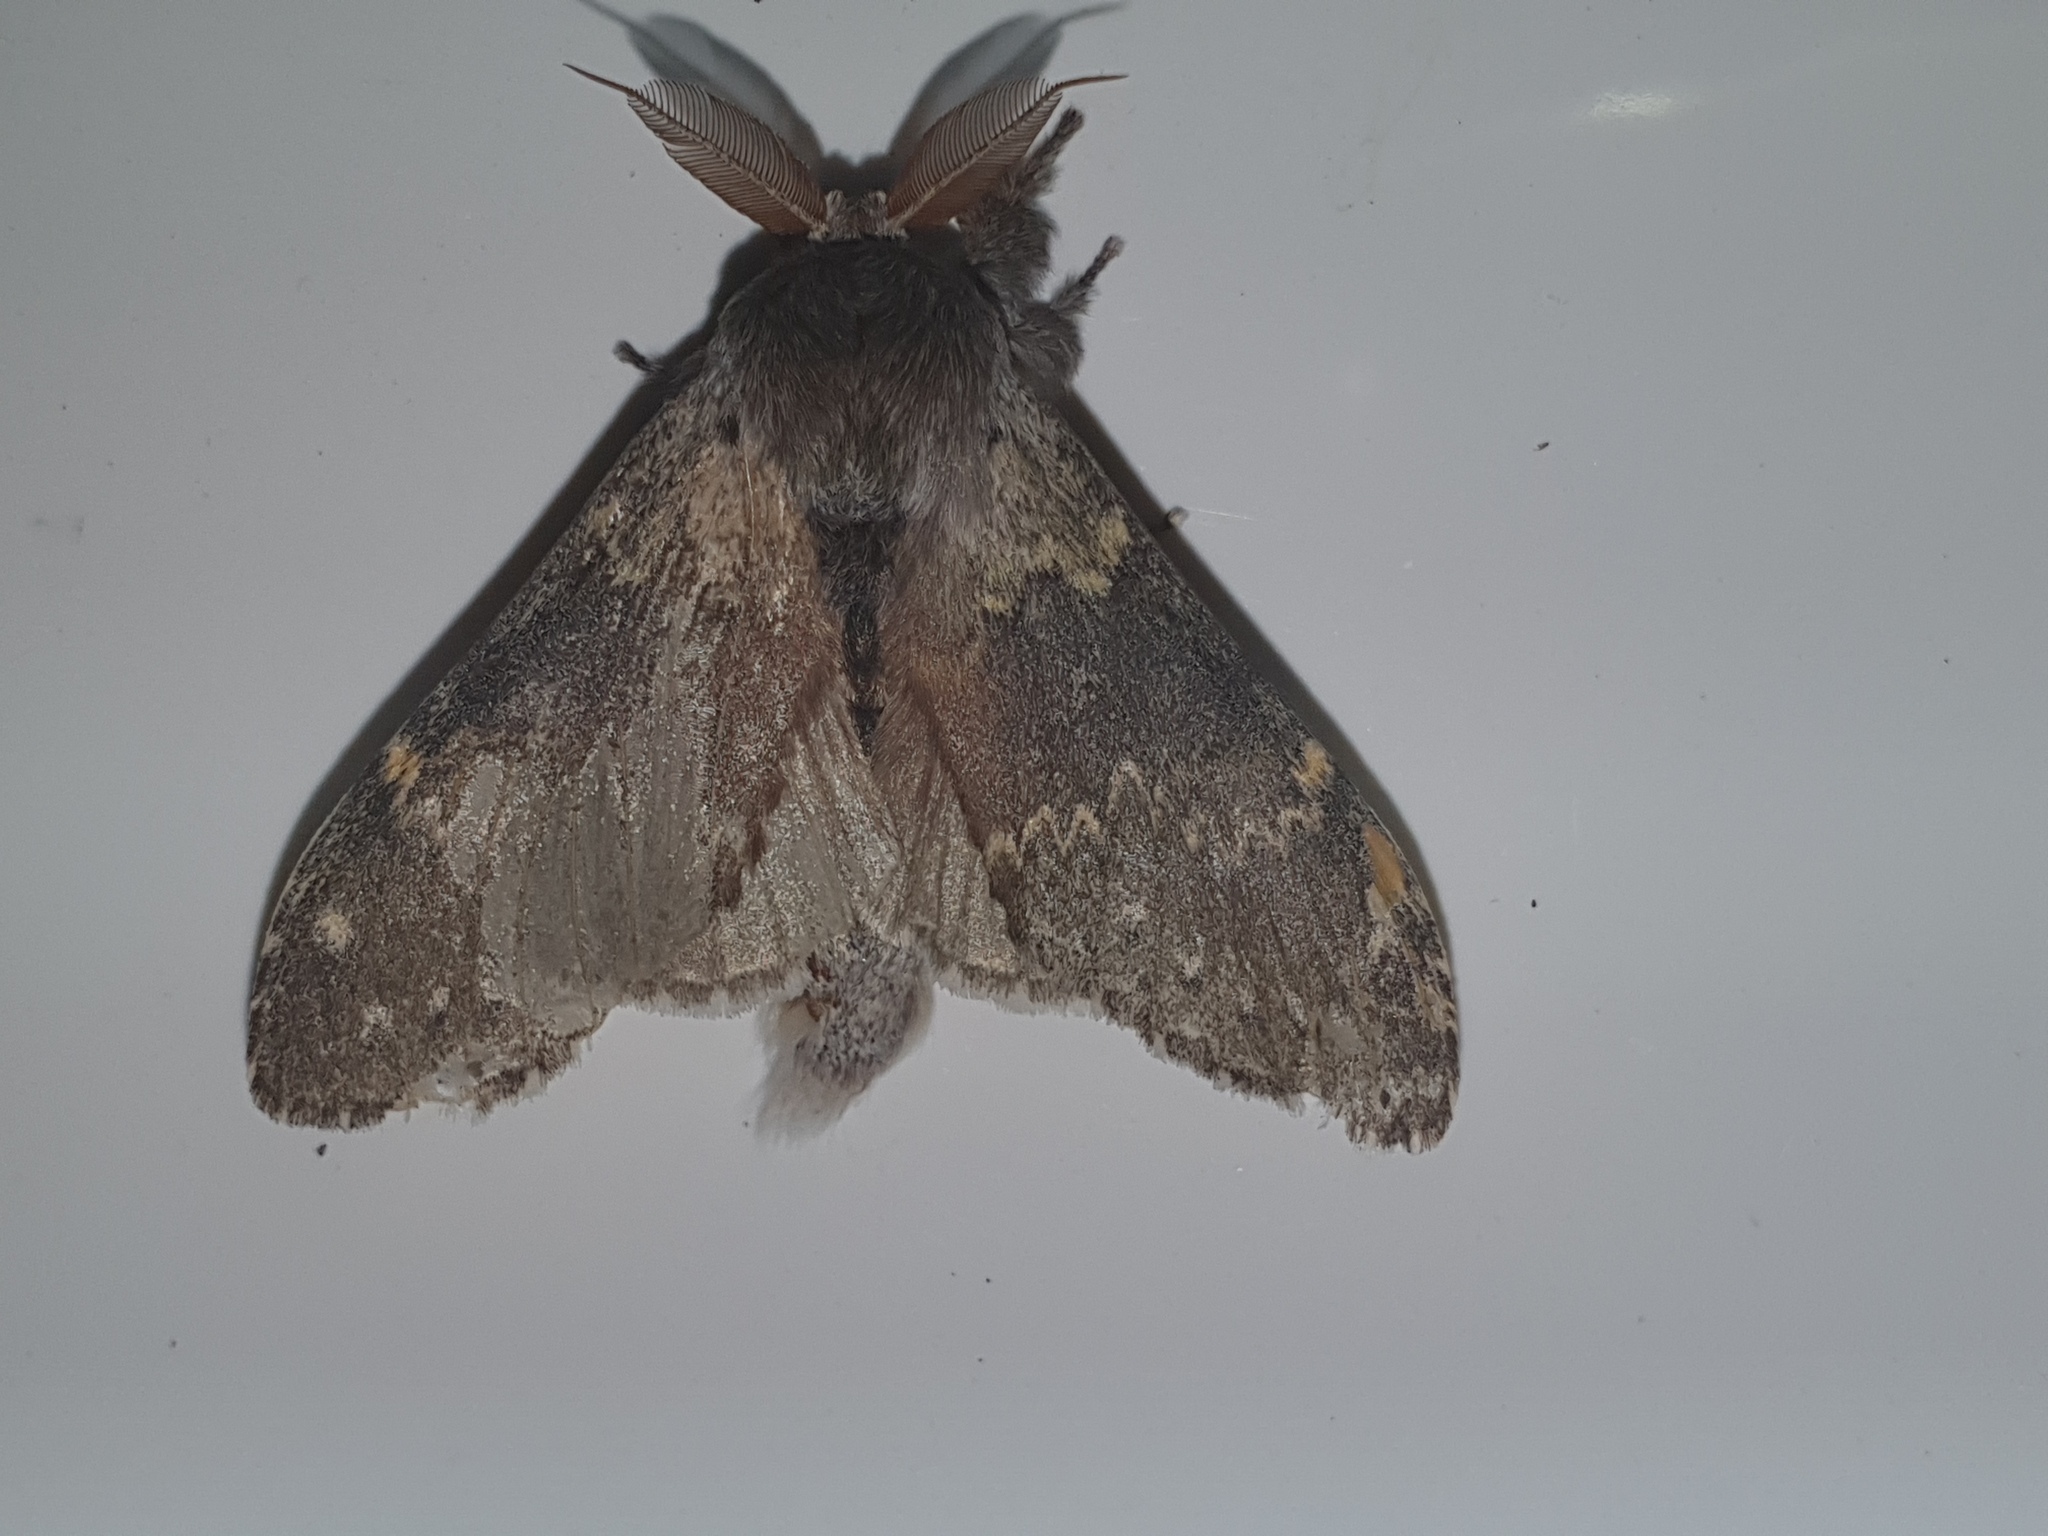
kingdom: Animalia
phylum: Arthropoda
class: Insecta
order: Lepidoptera
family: Notodontidae
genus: Stauropus
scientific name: Stauropus fagi
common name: Lobster moth
